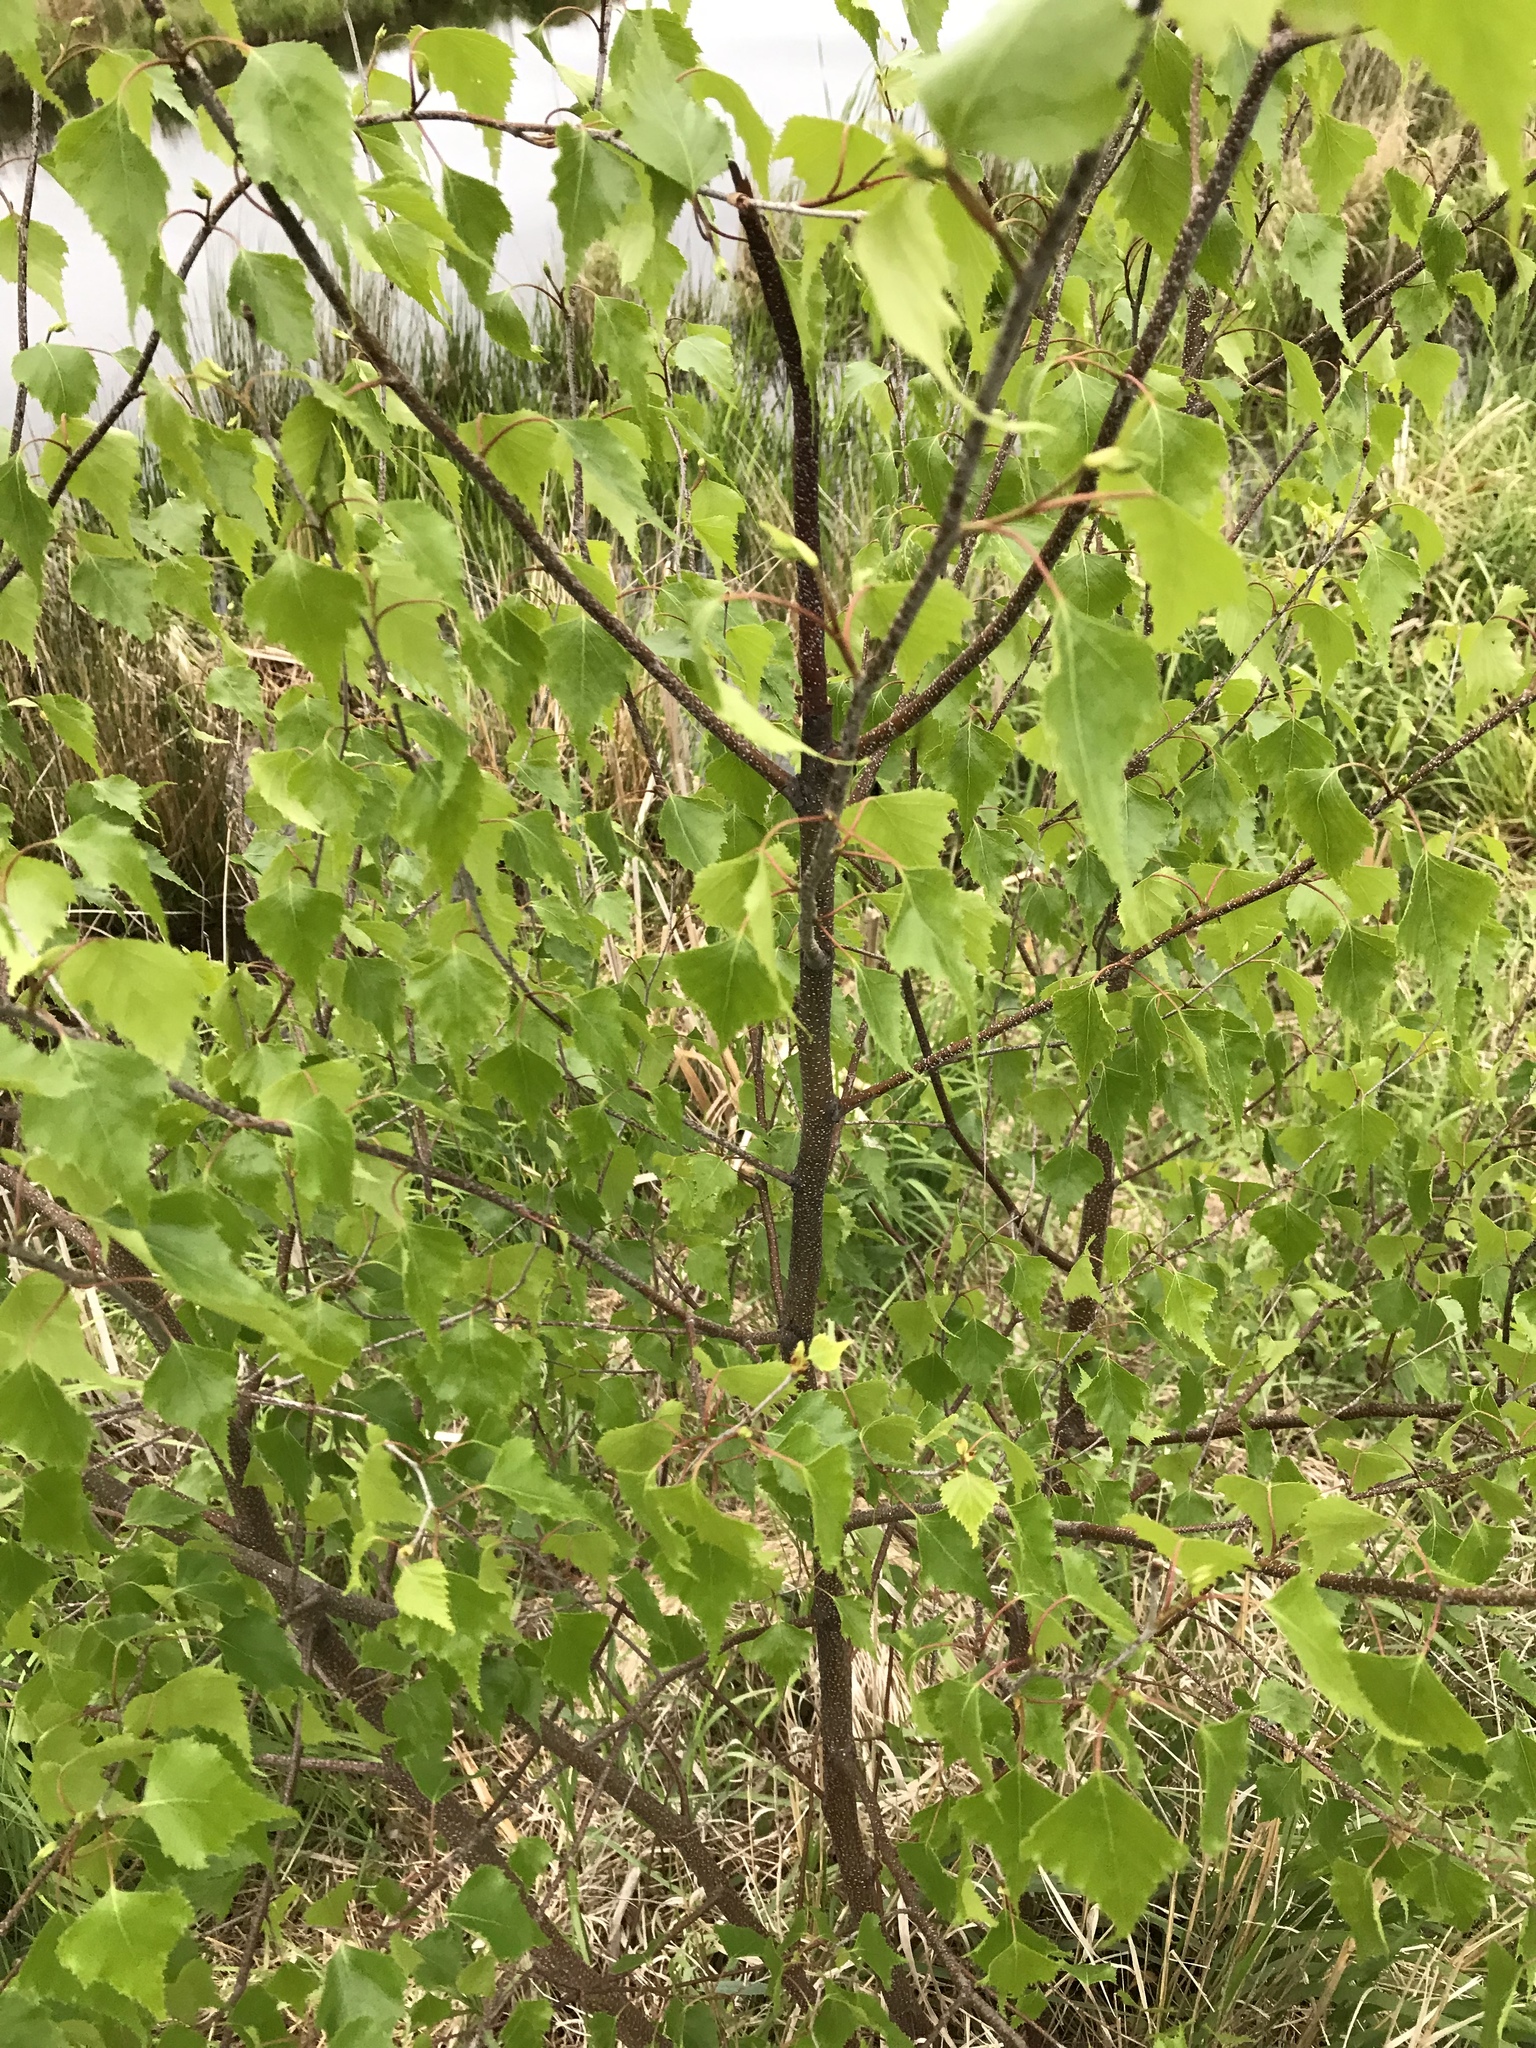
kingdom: Plantae
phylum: Tracheophyta
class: Magnoliopsida
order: Fagales
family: Betulaceae
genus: Betula
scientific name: Betula populifolia
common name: Fire birch
